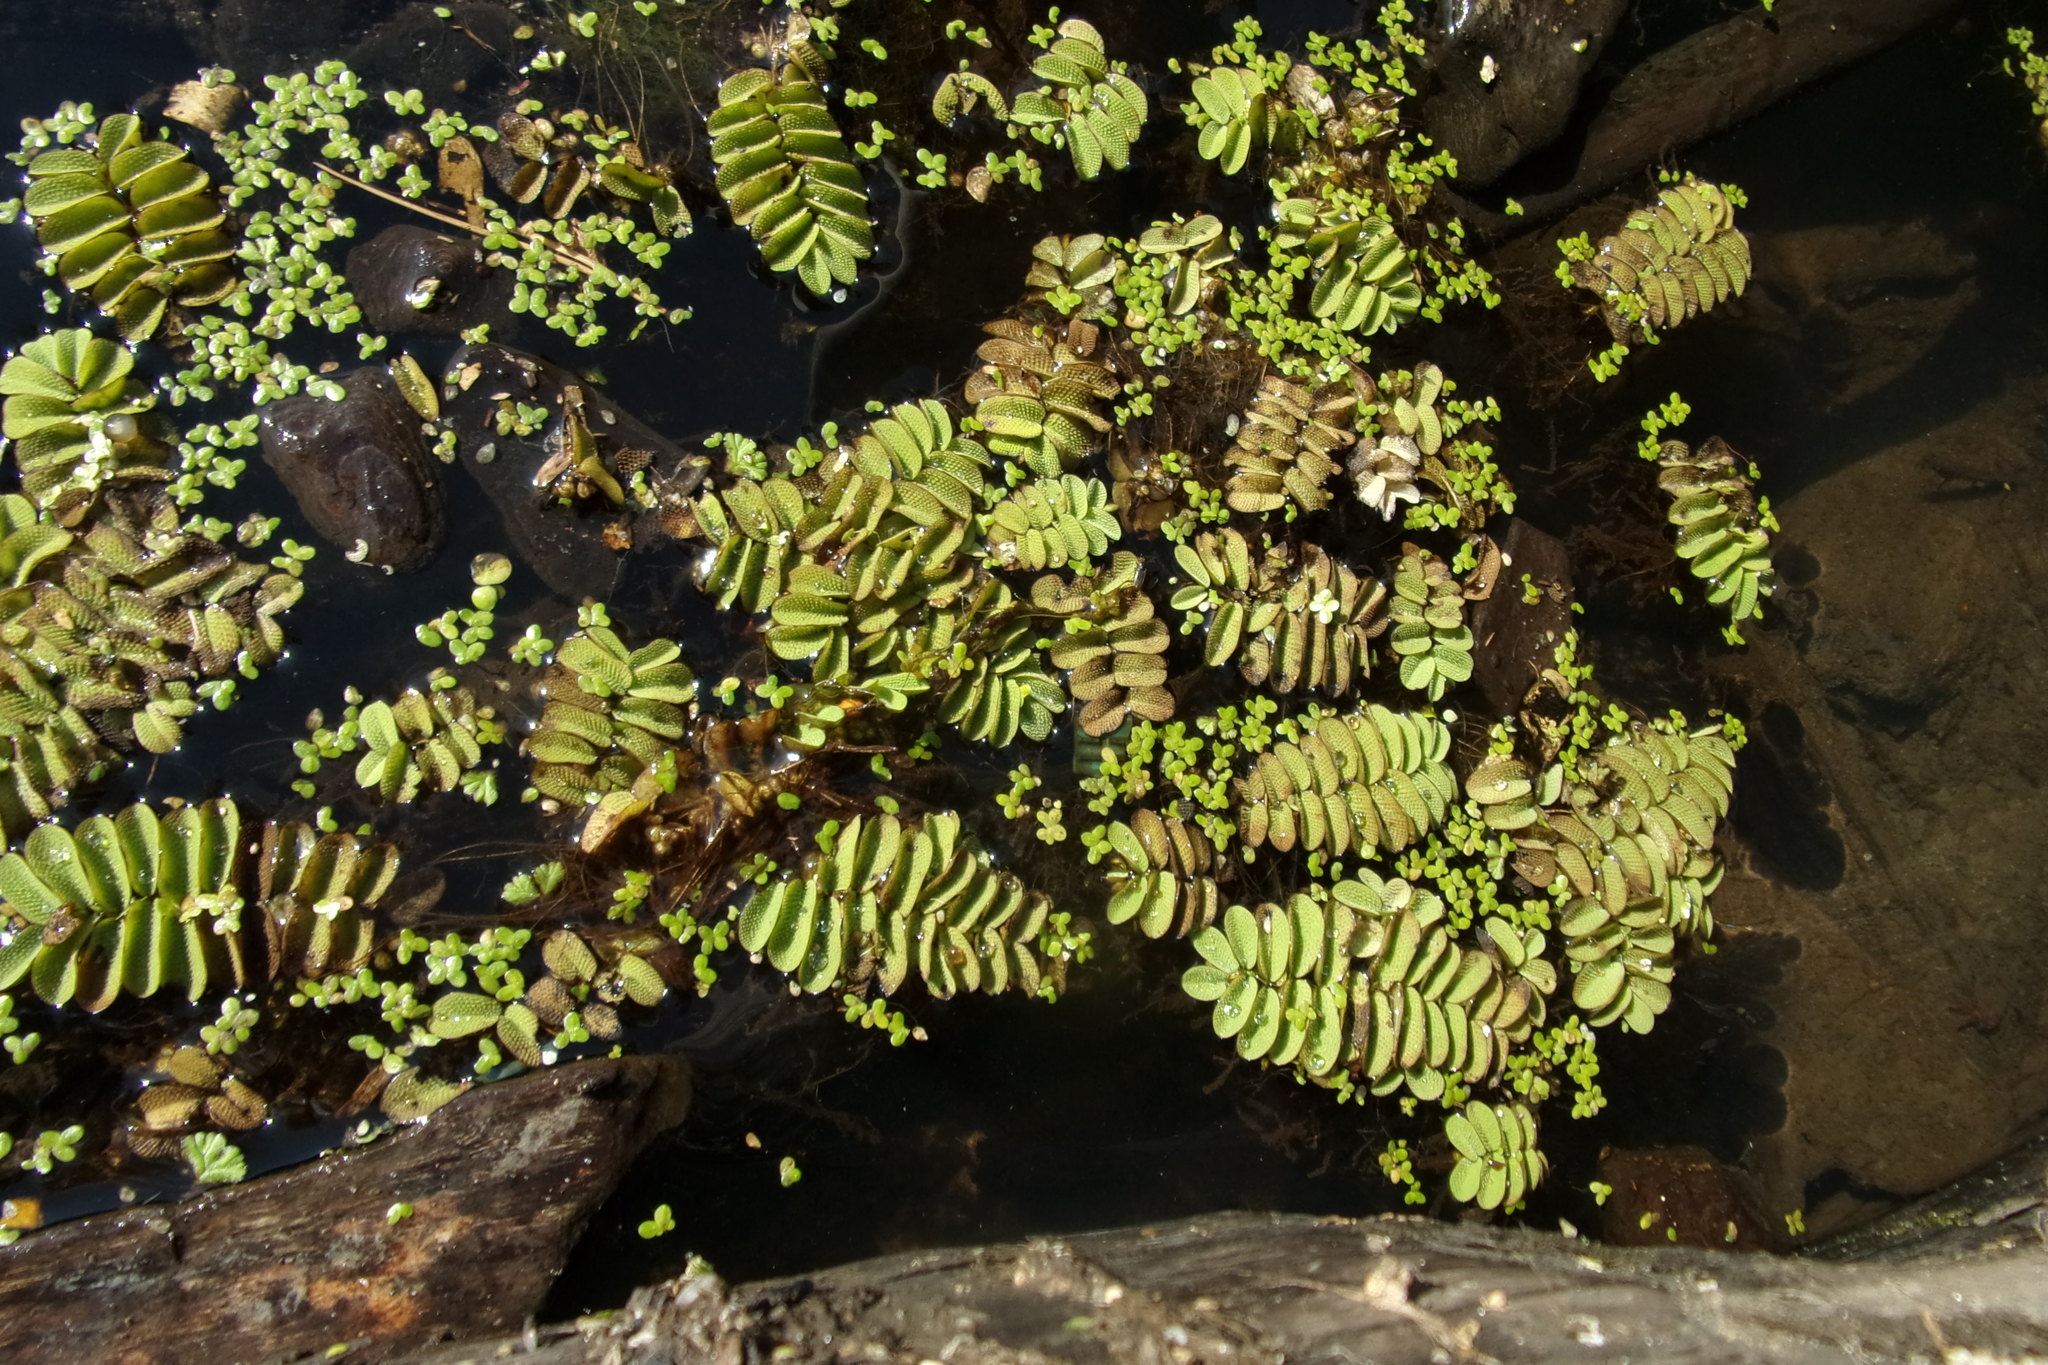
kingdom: Plantae
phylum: Tracheophyta
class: Polypodiopsida
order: Salviniales
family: Salviniaceae
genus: Salvinia
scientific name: Salvinia natans
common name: Floating fern
